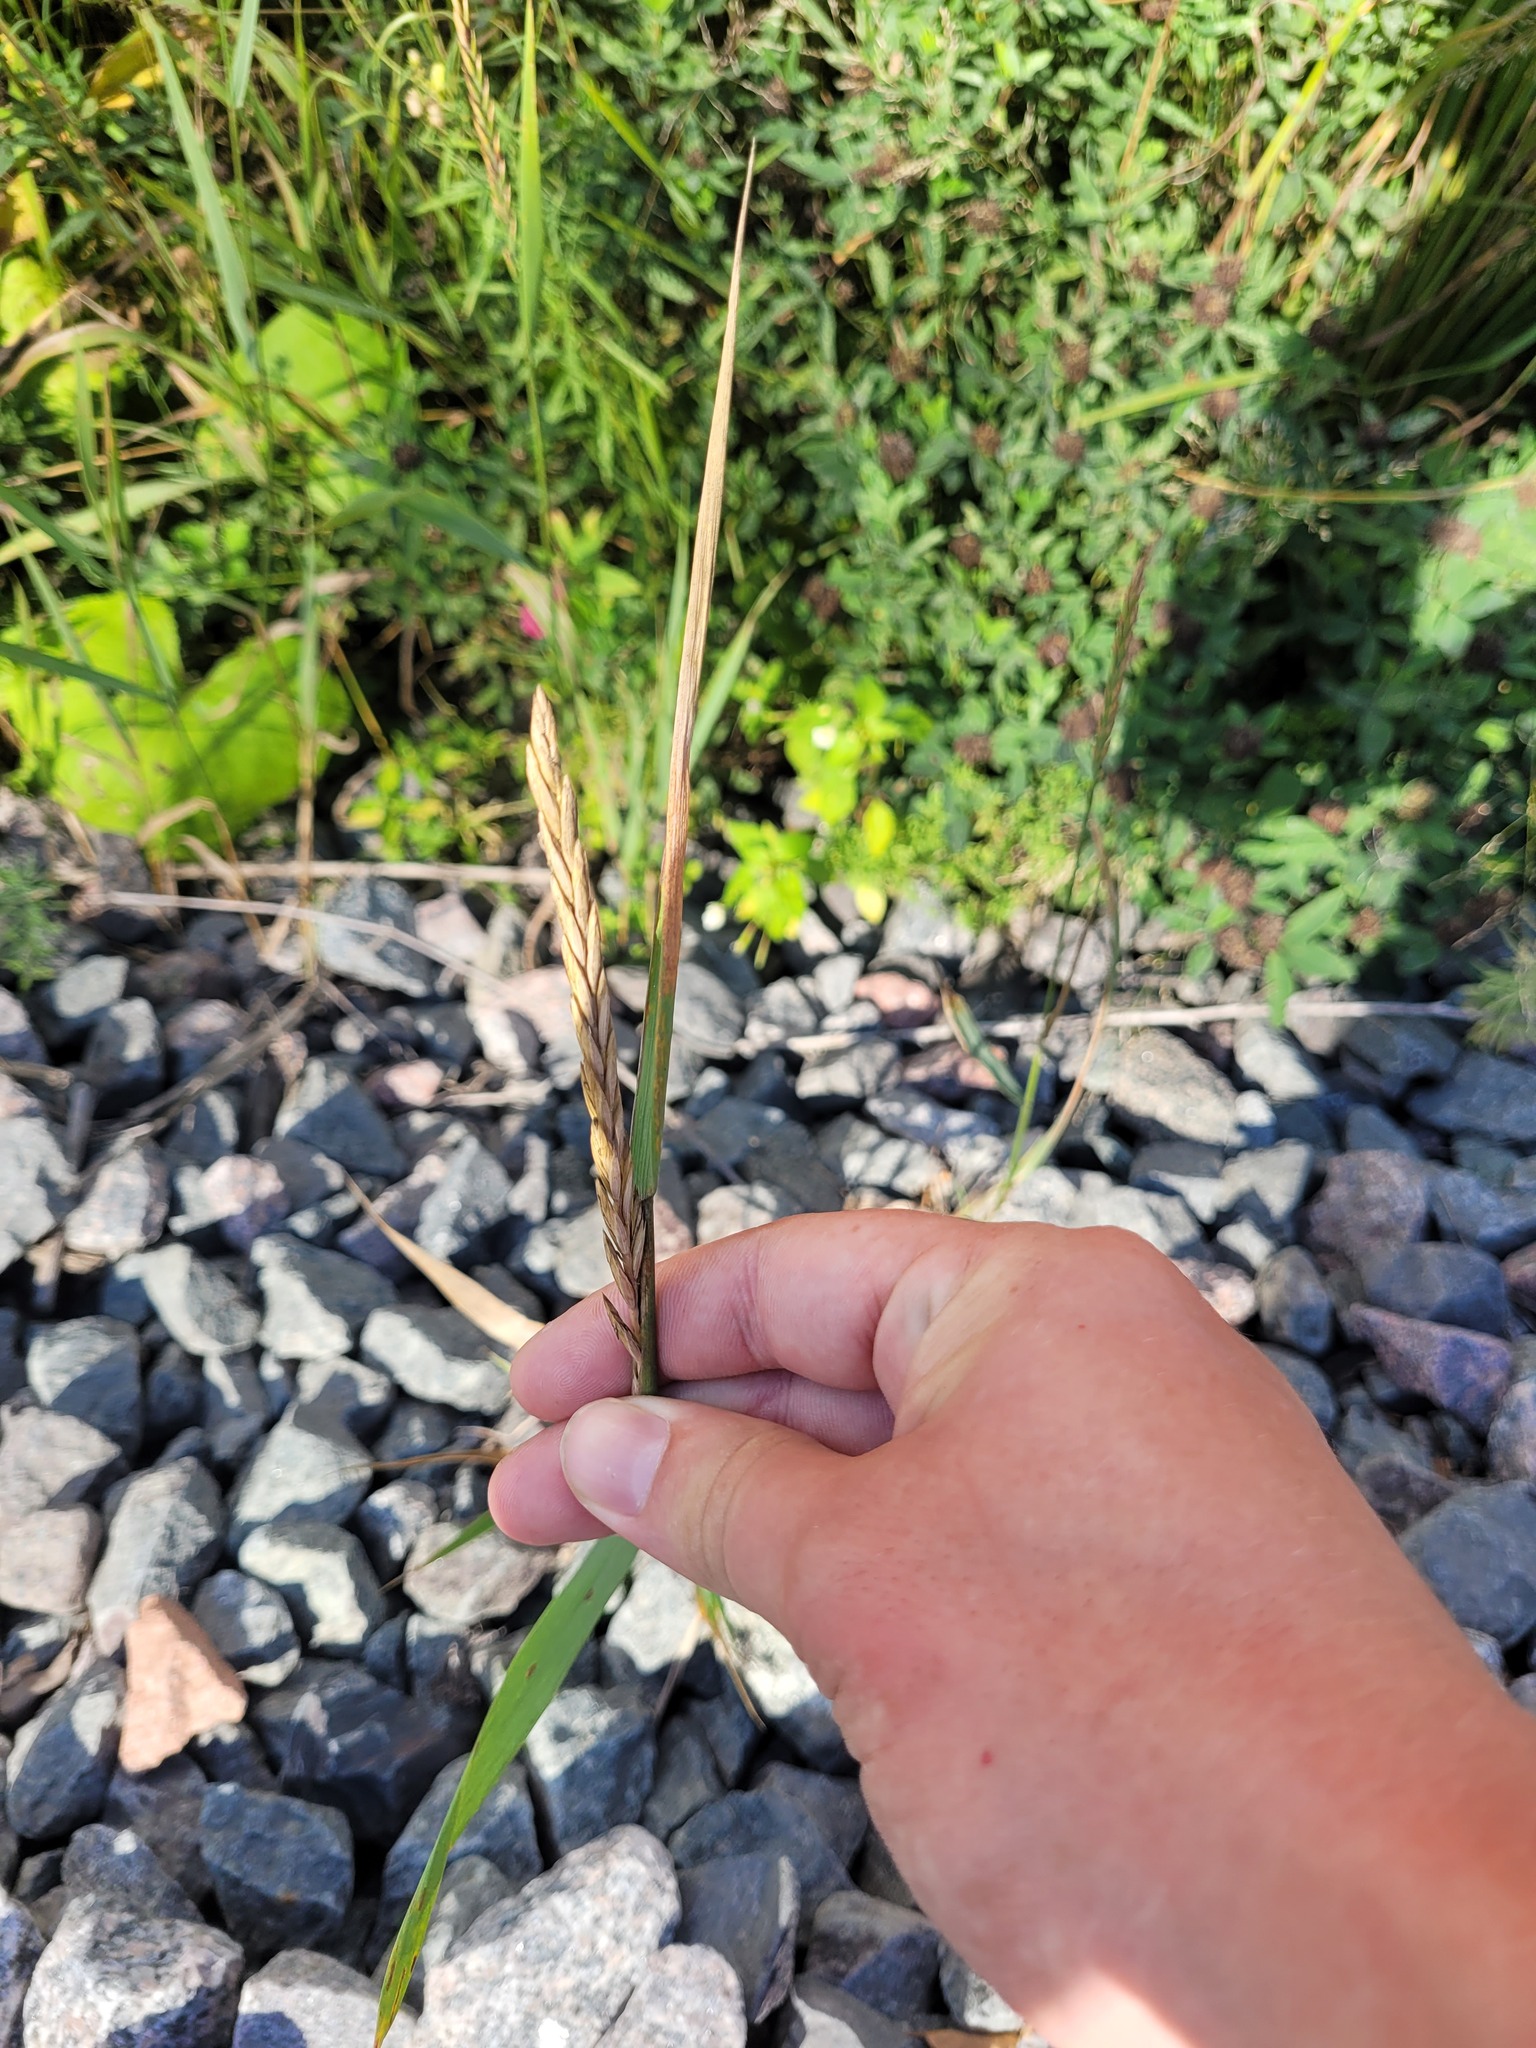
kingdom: Plantae
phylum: Tracheophyta
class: Liliopsida
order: Poales
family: Poaceae
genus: Elymus
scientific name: Elymus repens
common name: Quackgrass
